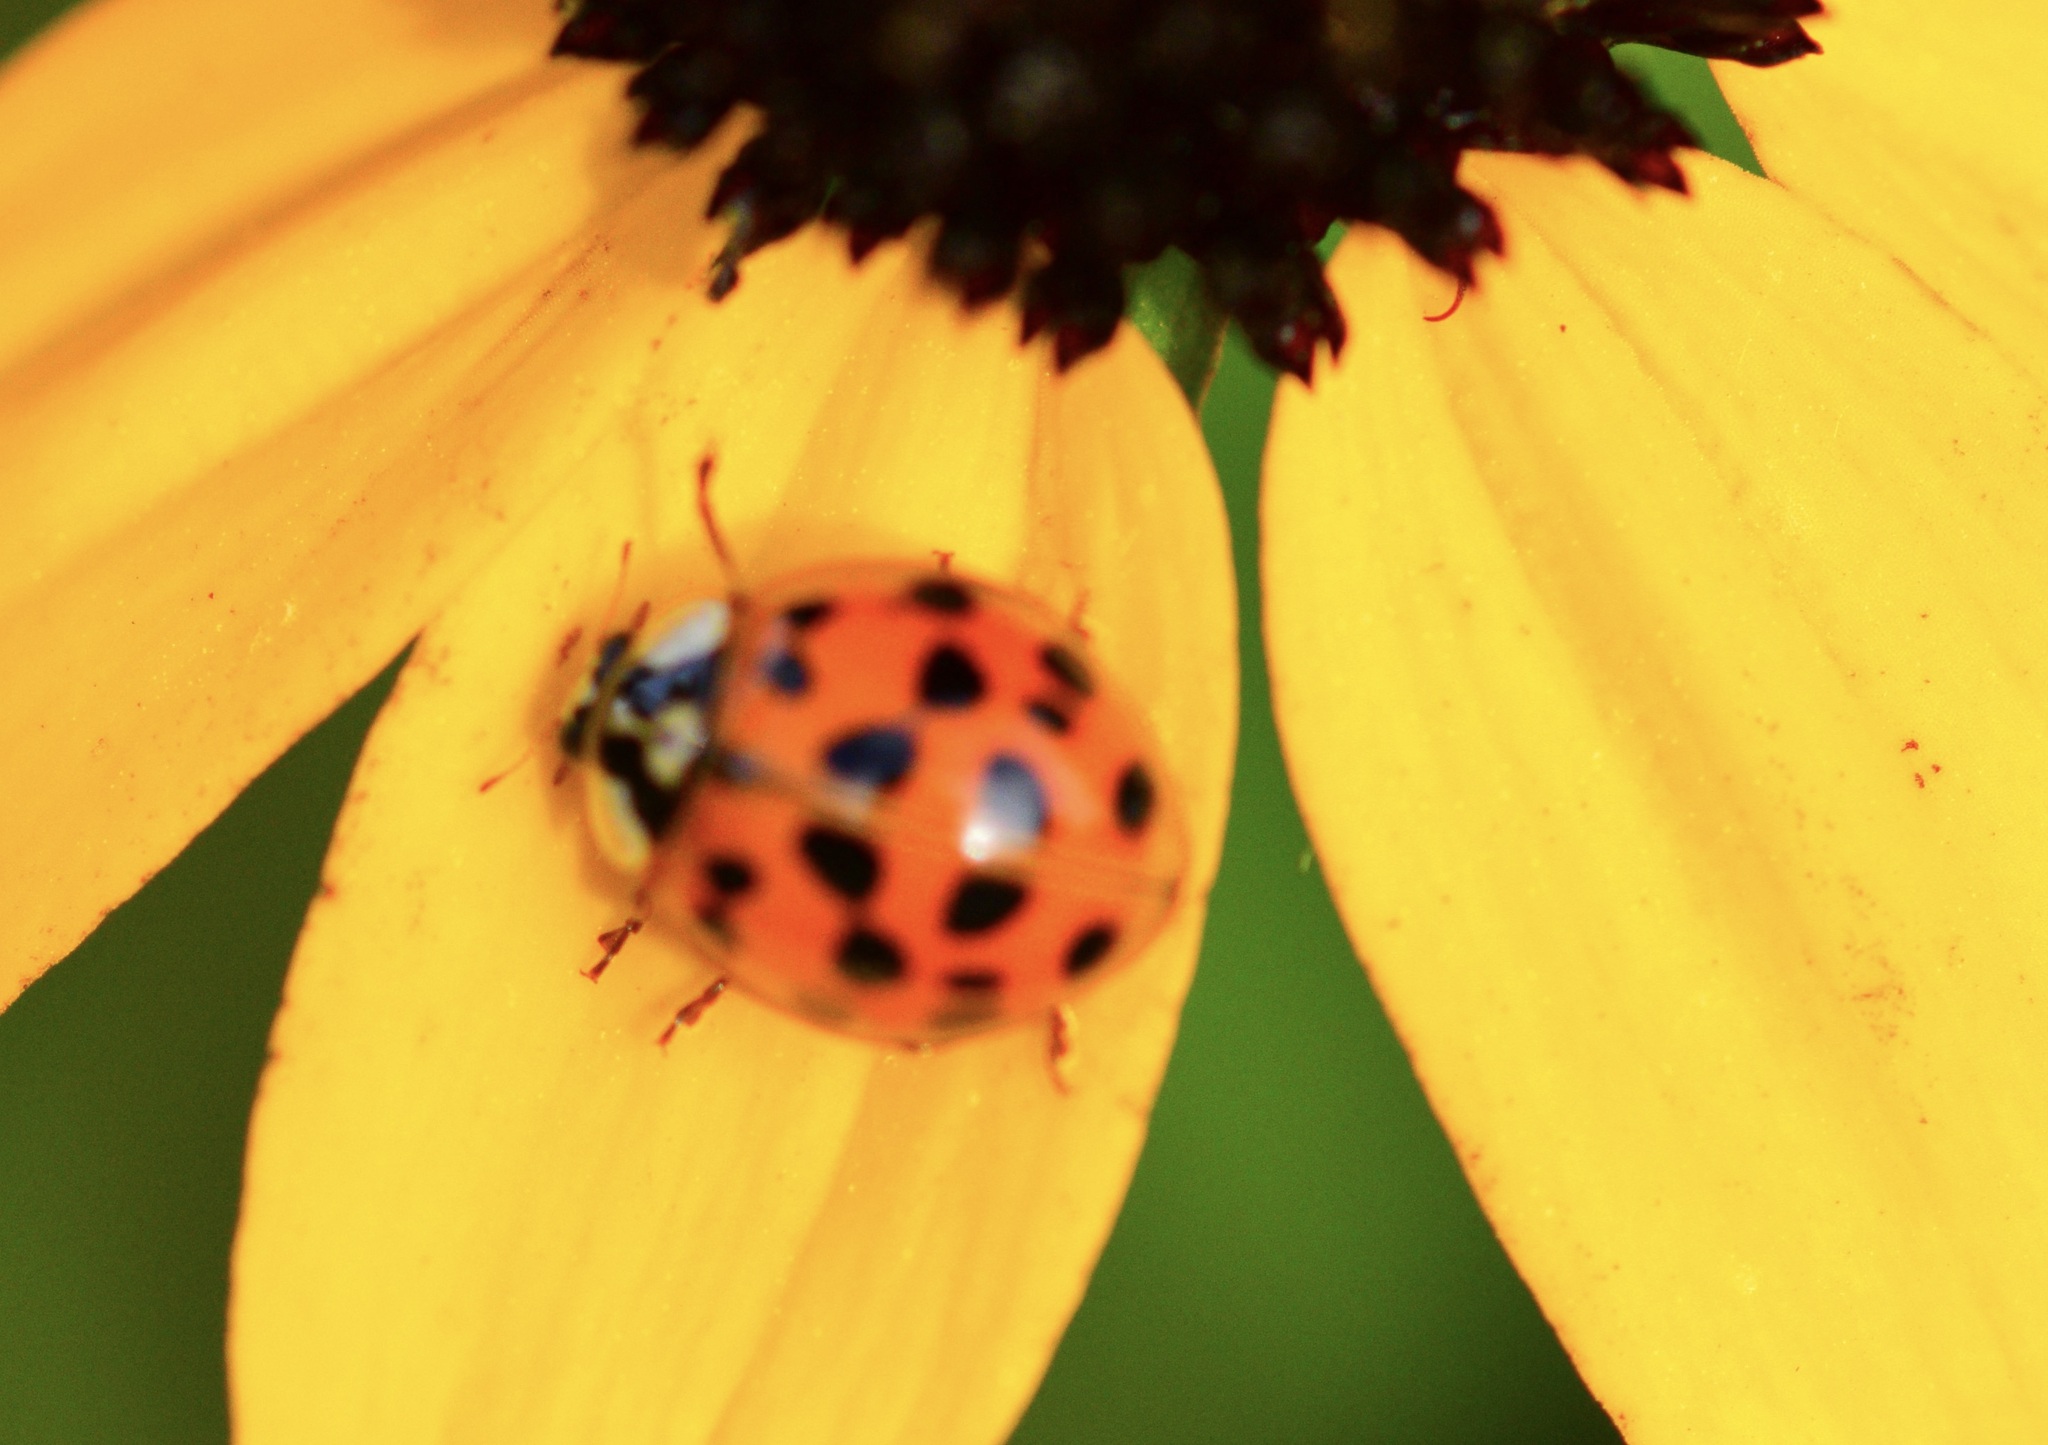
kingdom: Animalia
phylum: Arthropoda
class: Insecta
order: Coleoptera
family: Coccinellidae
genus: Harmonia
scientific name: Harmonia axyridis
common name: Harlequin ladybird
